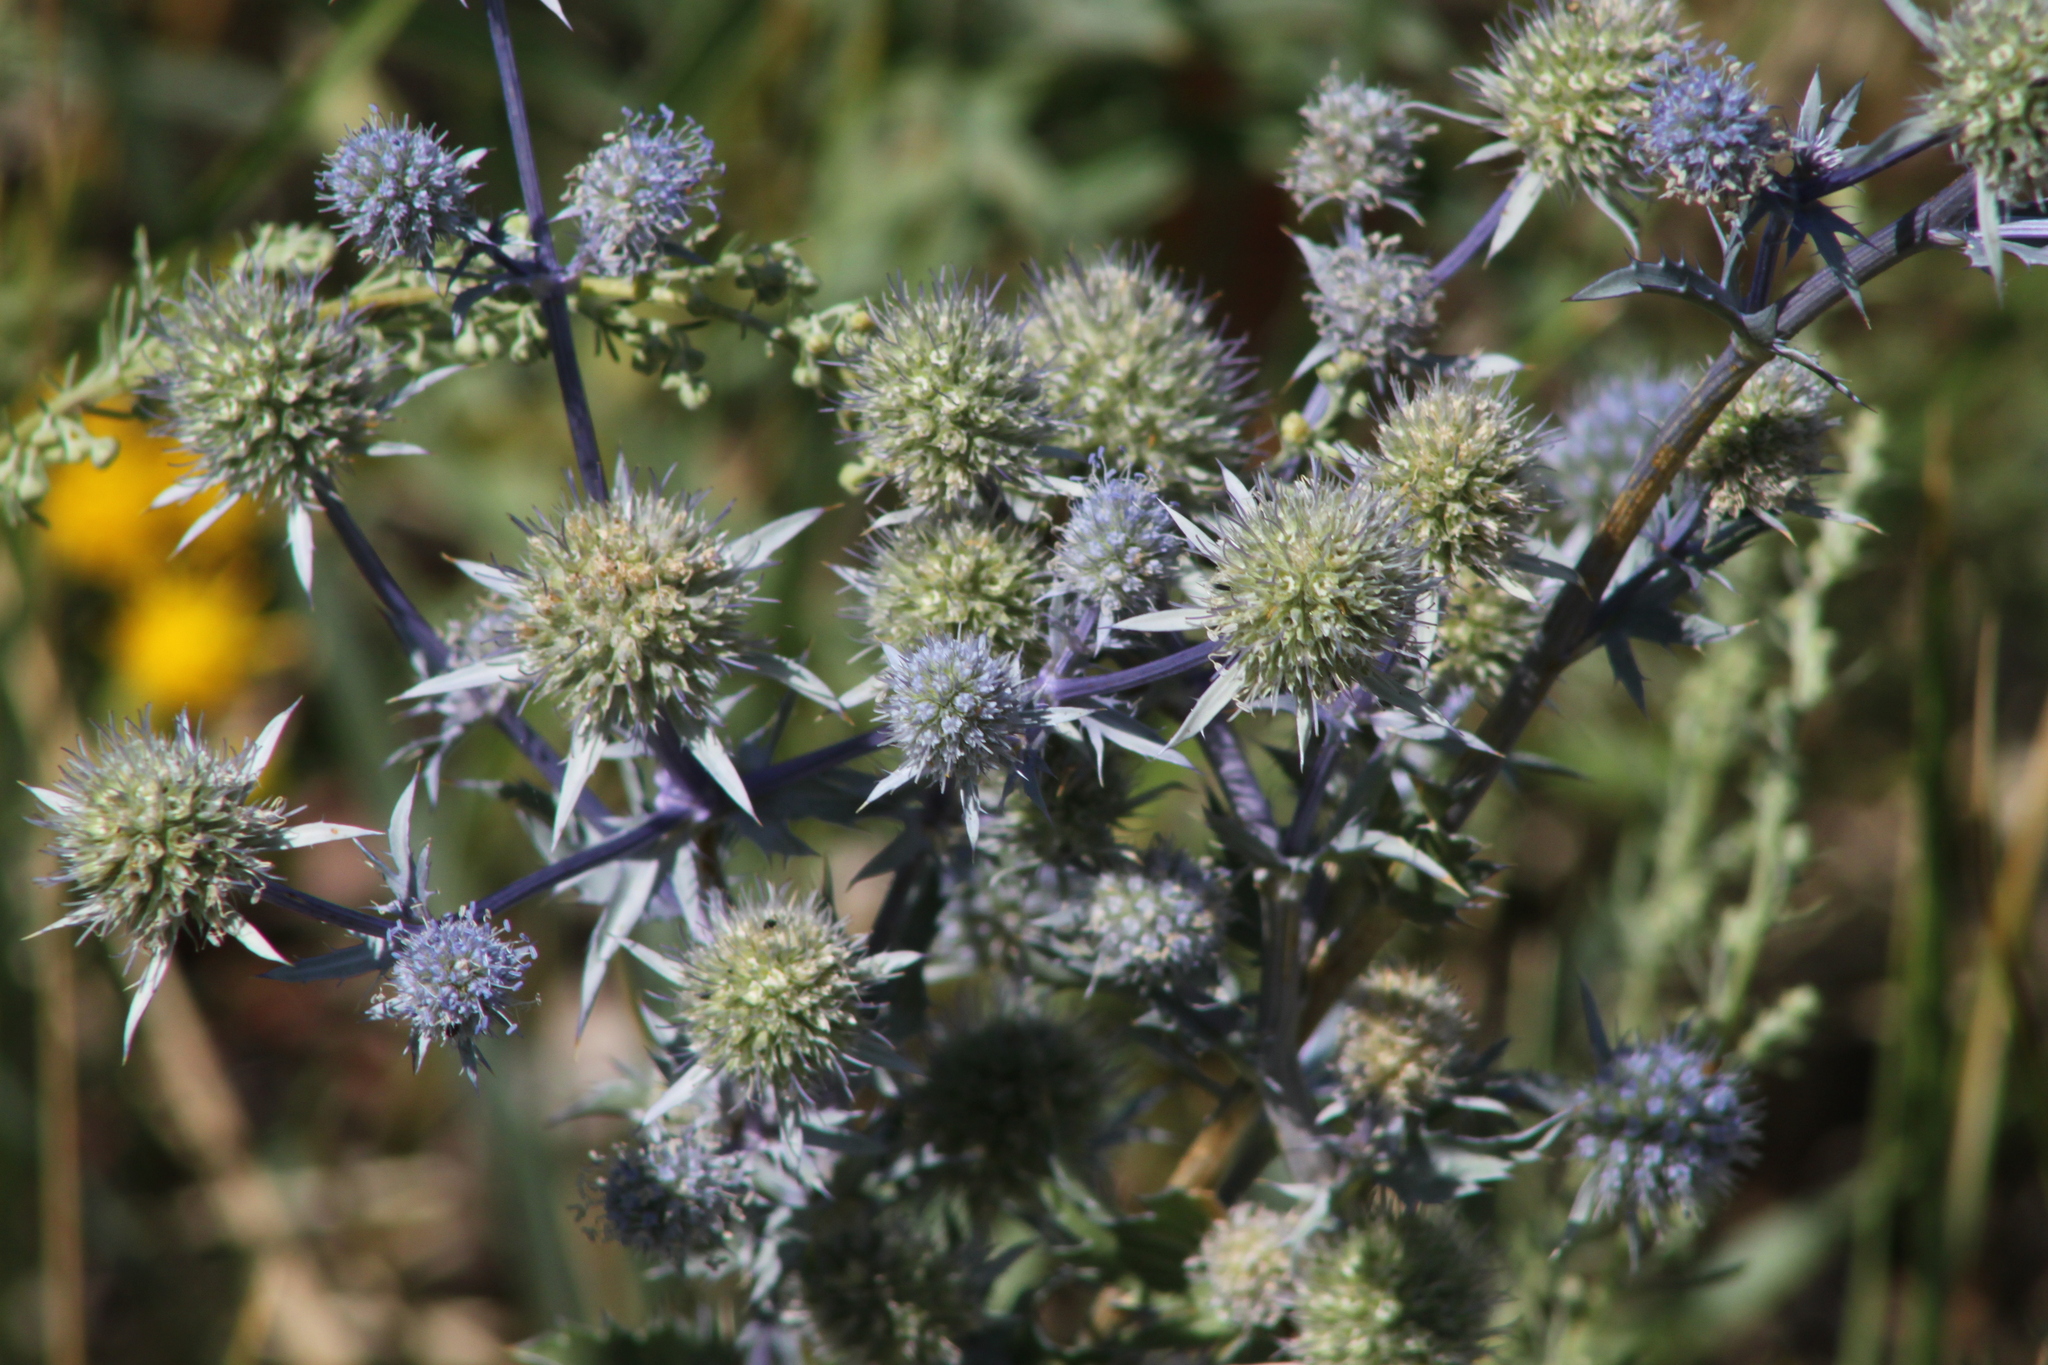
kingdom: Plantae
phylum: Tracheophyta
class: Magnoliopsida
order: Apiales
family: Apiaceae
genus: Eryngium
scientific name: Eryngium planum
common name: Blue eryngo
